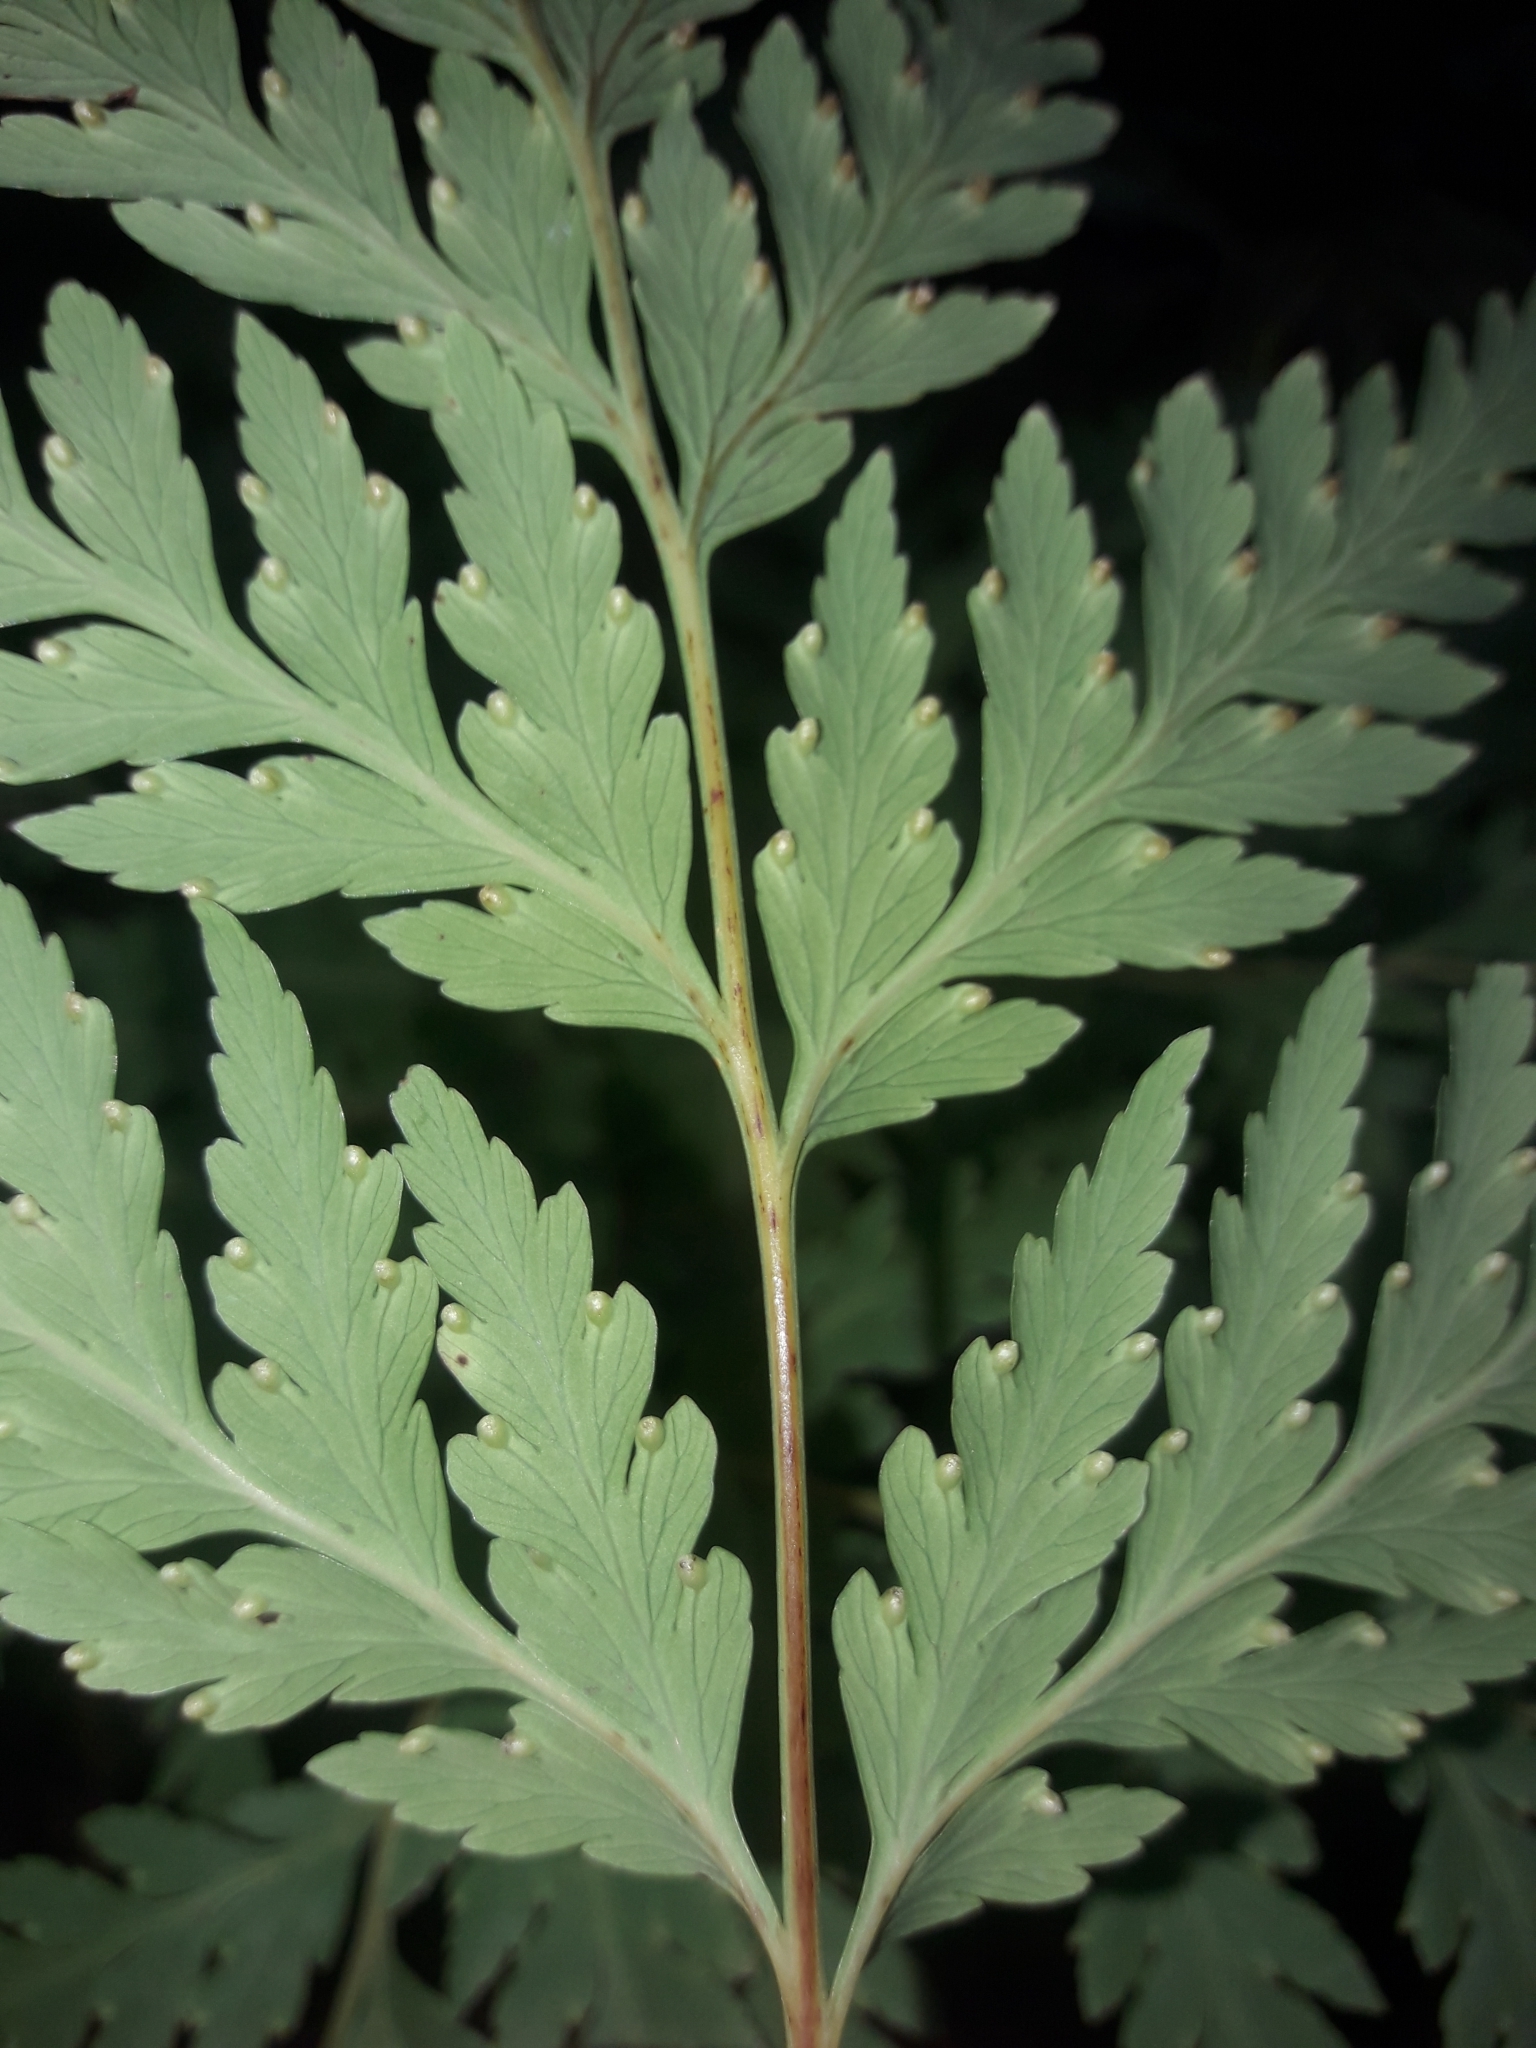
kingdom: Plantae
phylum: Tracheophyta
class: Polypodiopsida
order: Cyatheales
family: Loxsomataceae
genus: Loxsoma
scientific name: Loxsoma cunninghamii
